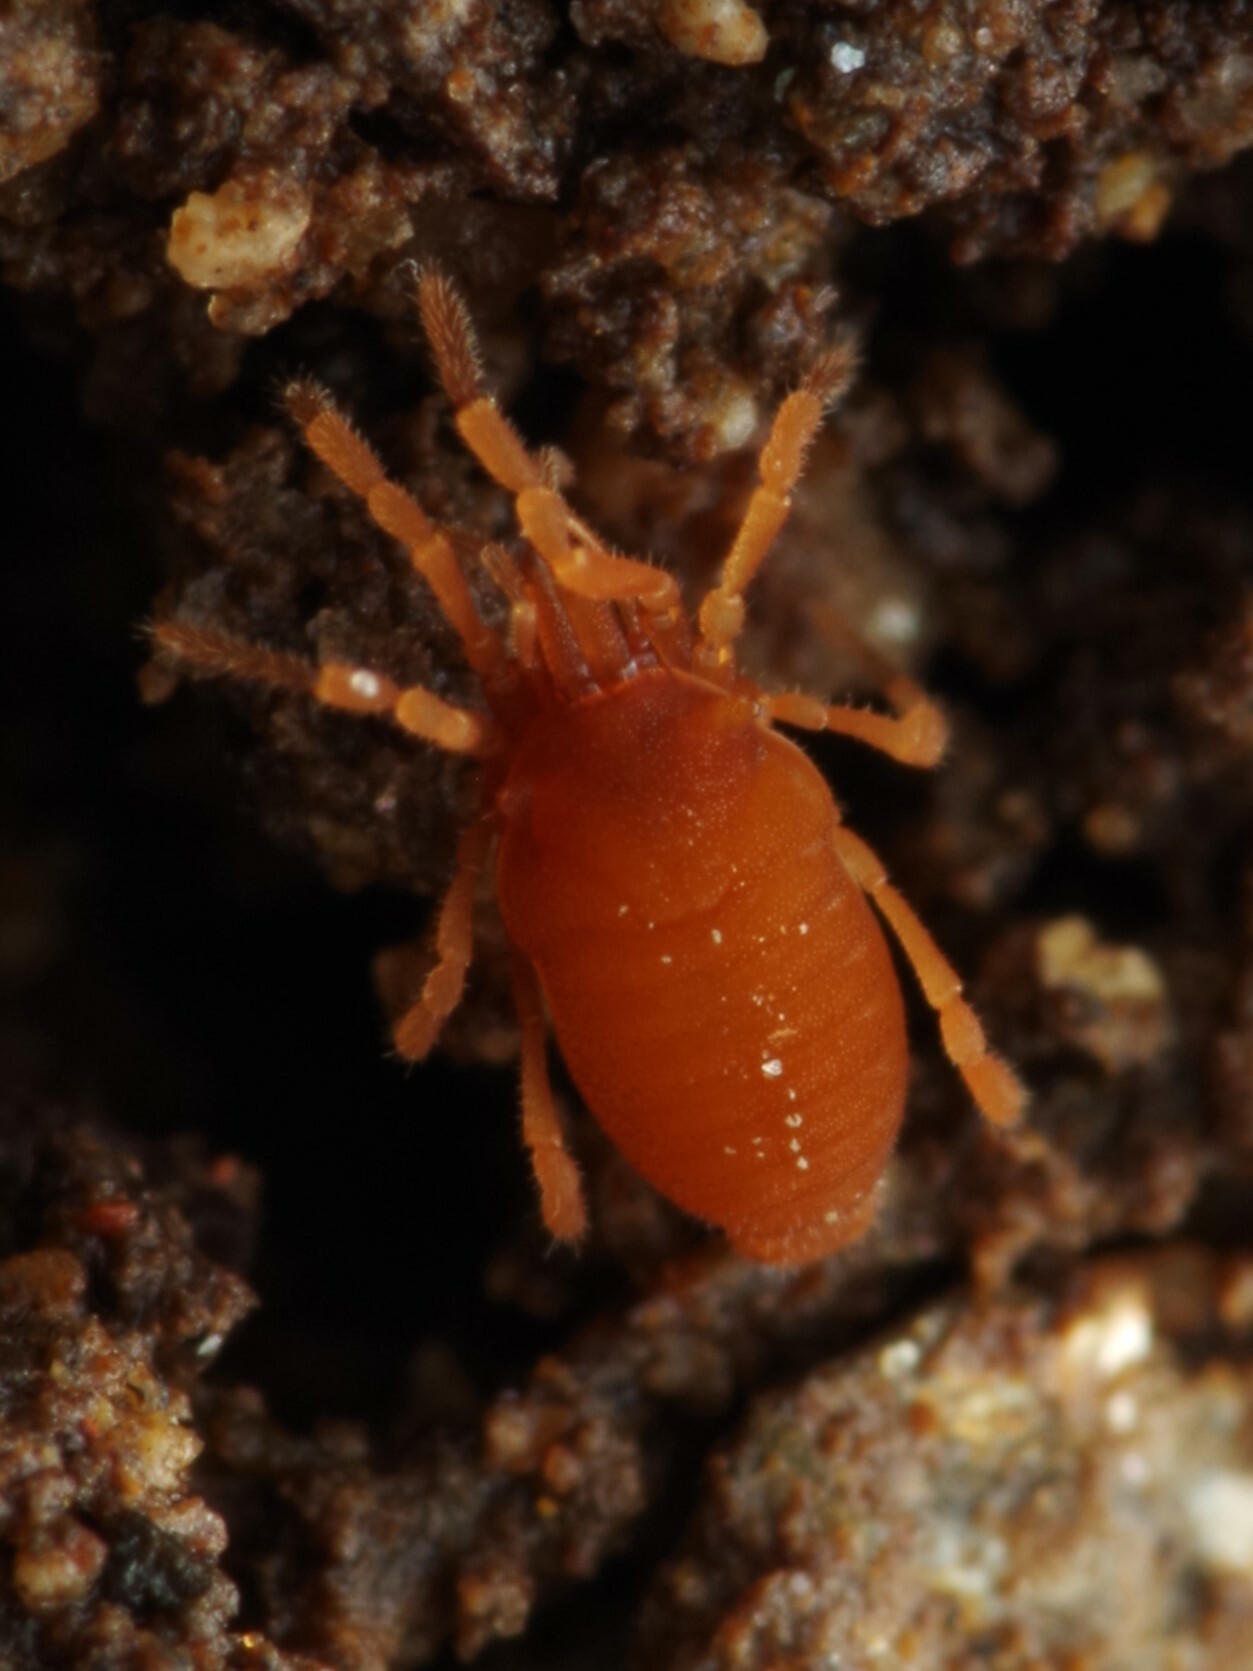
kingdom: Animalia
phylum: Arthropoda
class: Arachnida
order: Opiliones
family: Sironidae
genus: Siro
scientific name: Siro rubens
